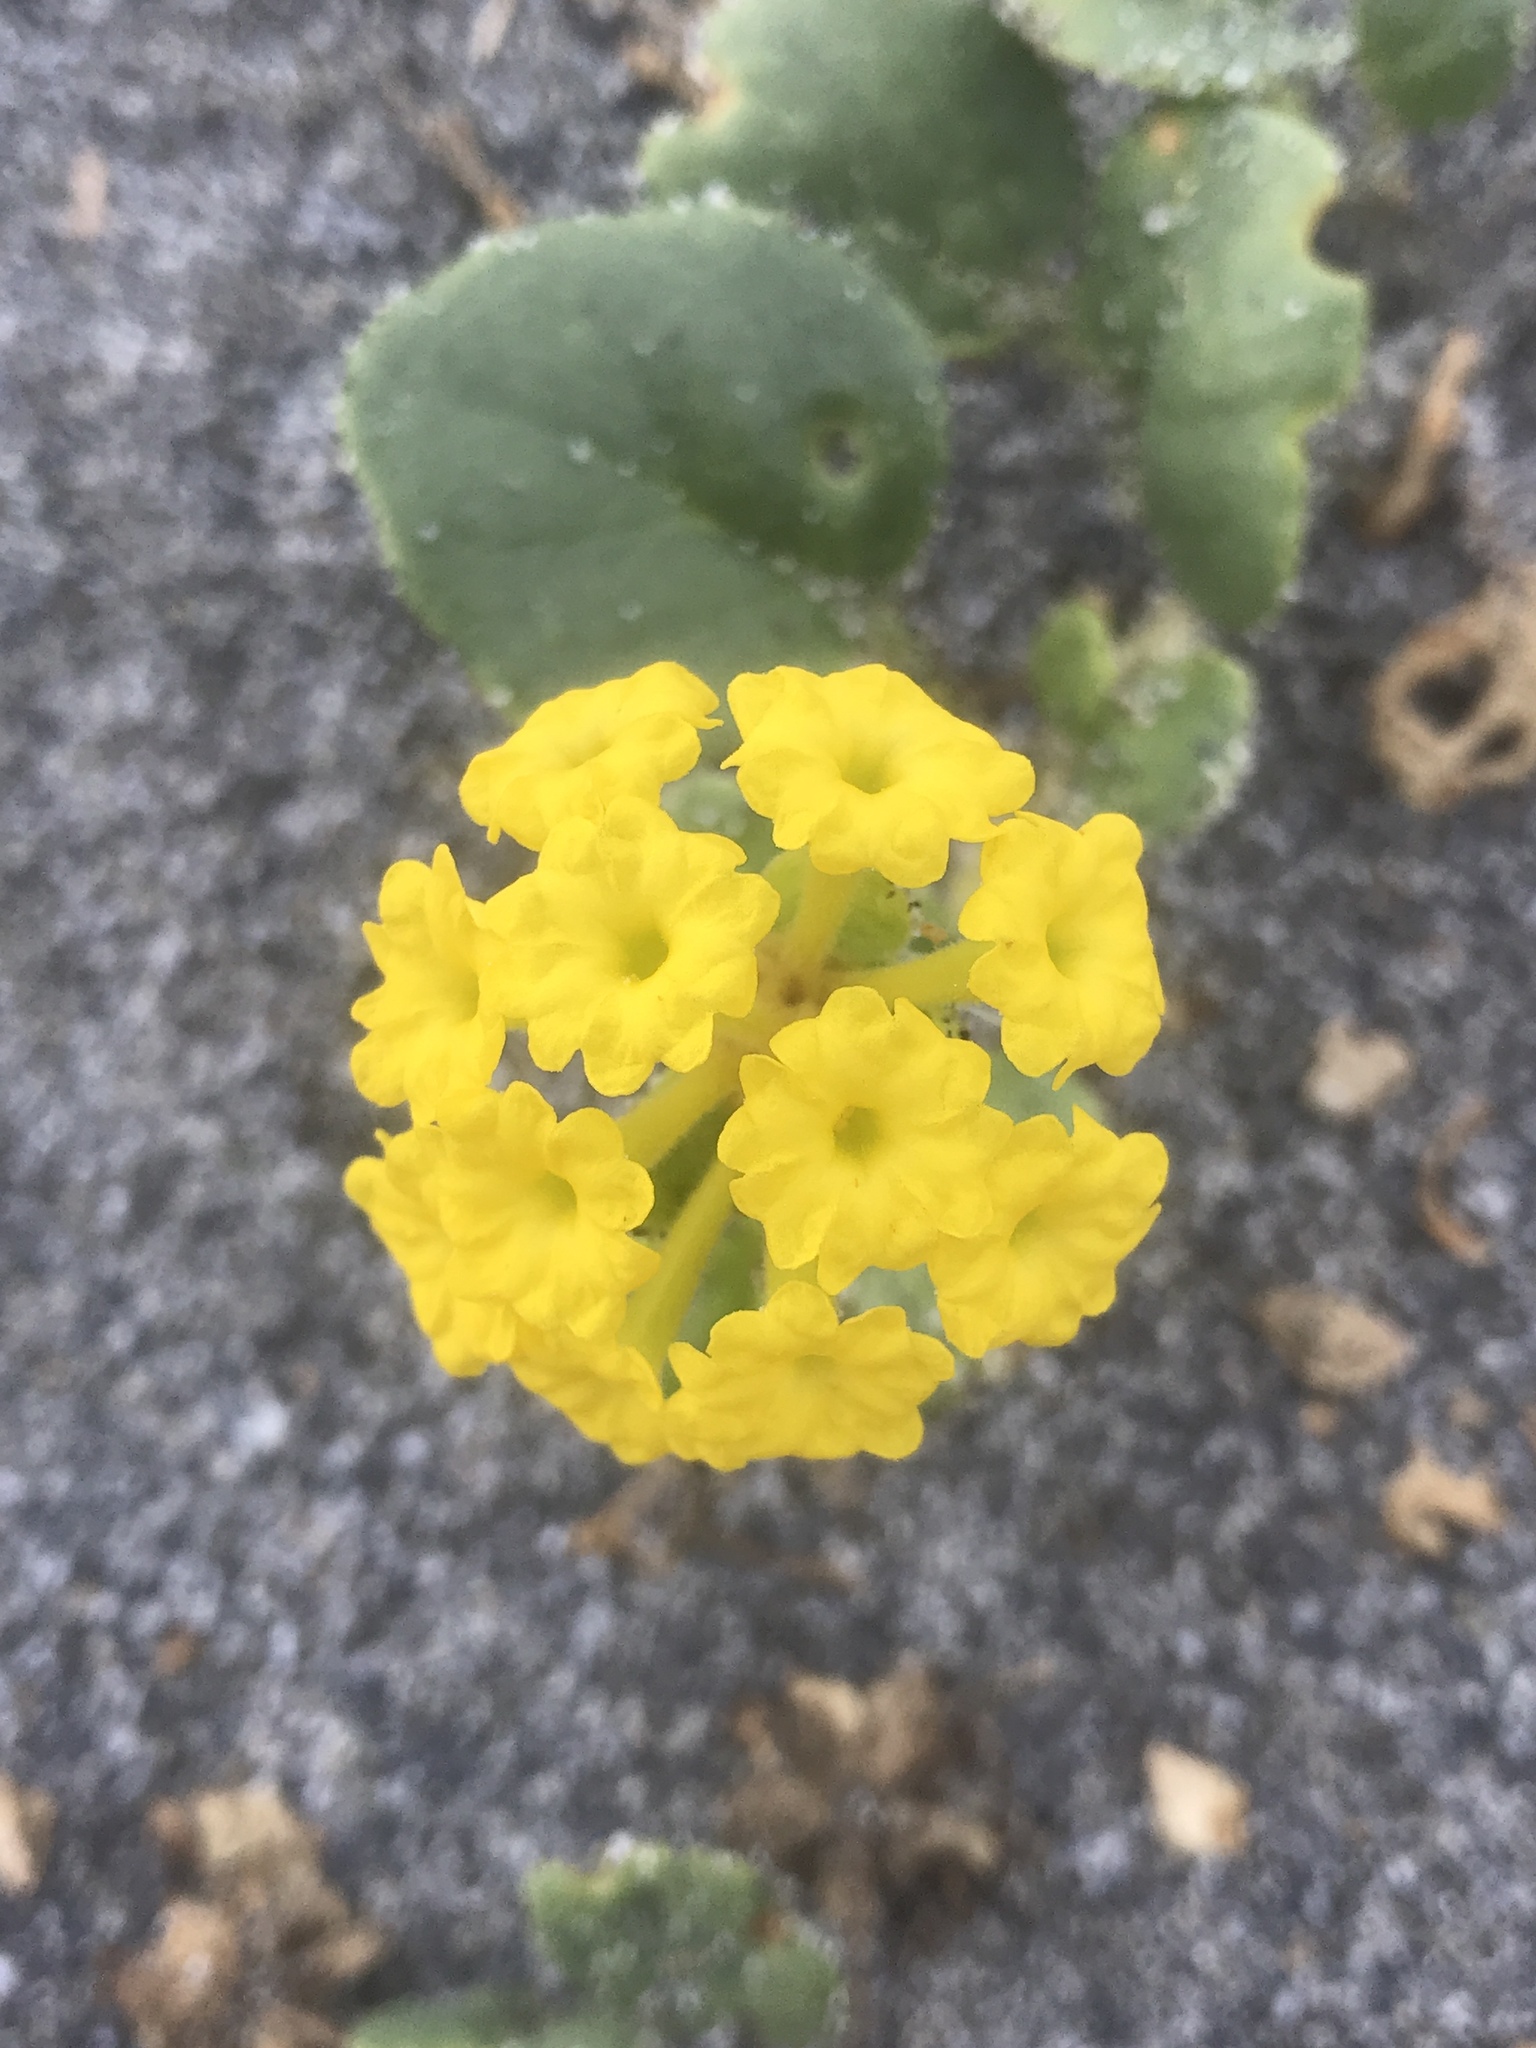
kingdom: Plantae
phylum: Tracheophyta
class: Magnoliopsida
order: Caryophyllales
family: Nyctaginaceae
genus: Abronia
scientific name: Abronia latifolia
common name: Yellow sand-verbena
